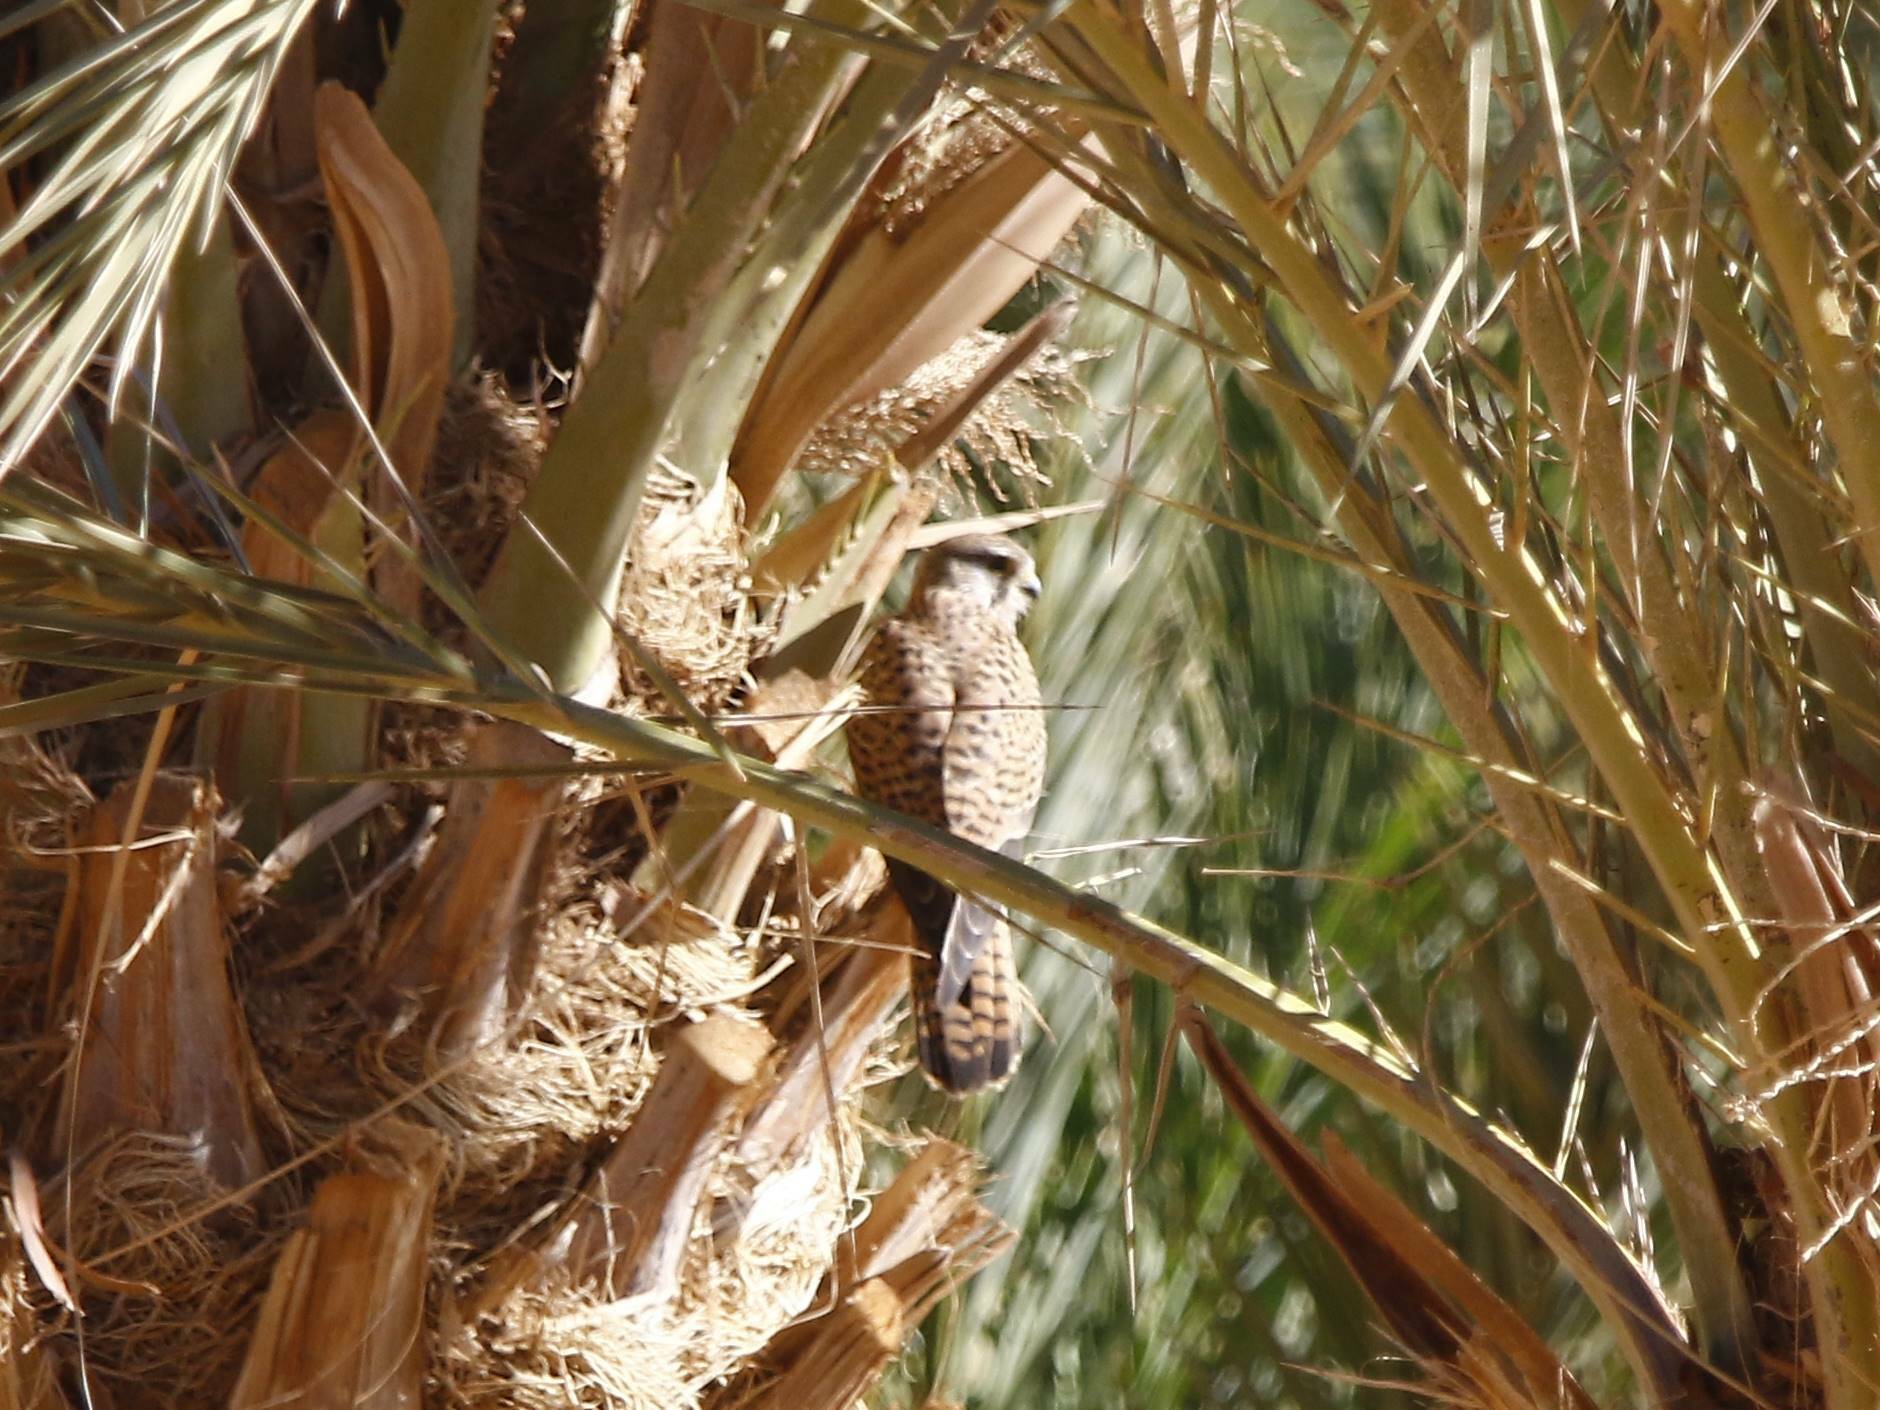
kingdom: Animalia
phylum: Chordata
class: Aves
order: Falconiformes
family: Falconidae
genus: Falco
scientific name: Falco tinnunculus
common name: Common kestrel
